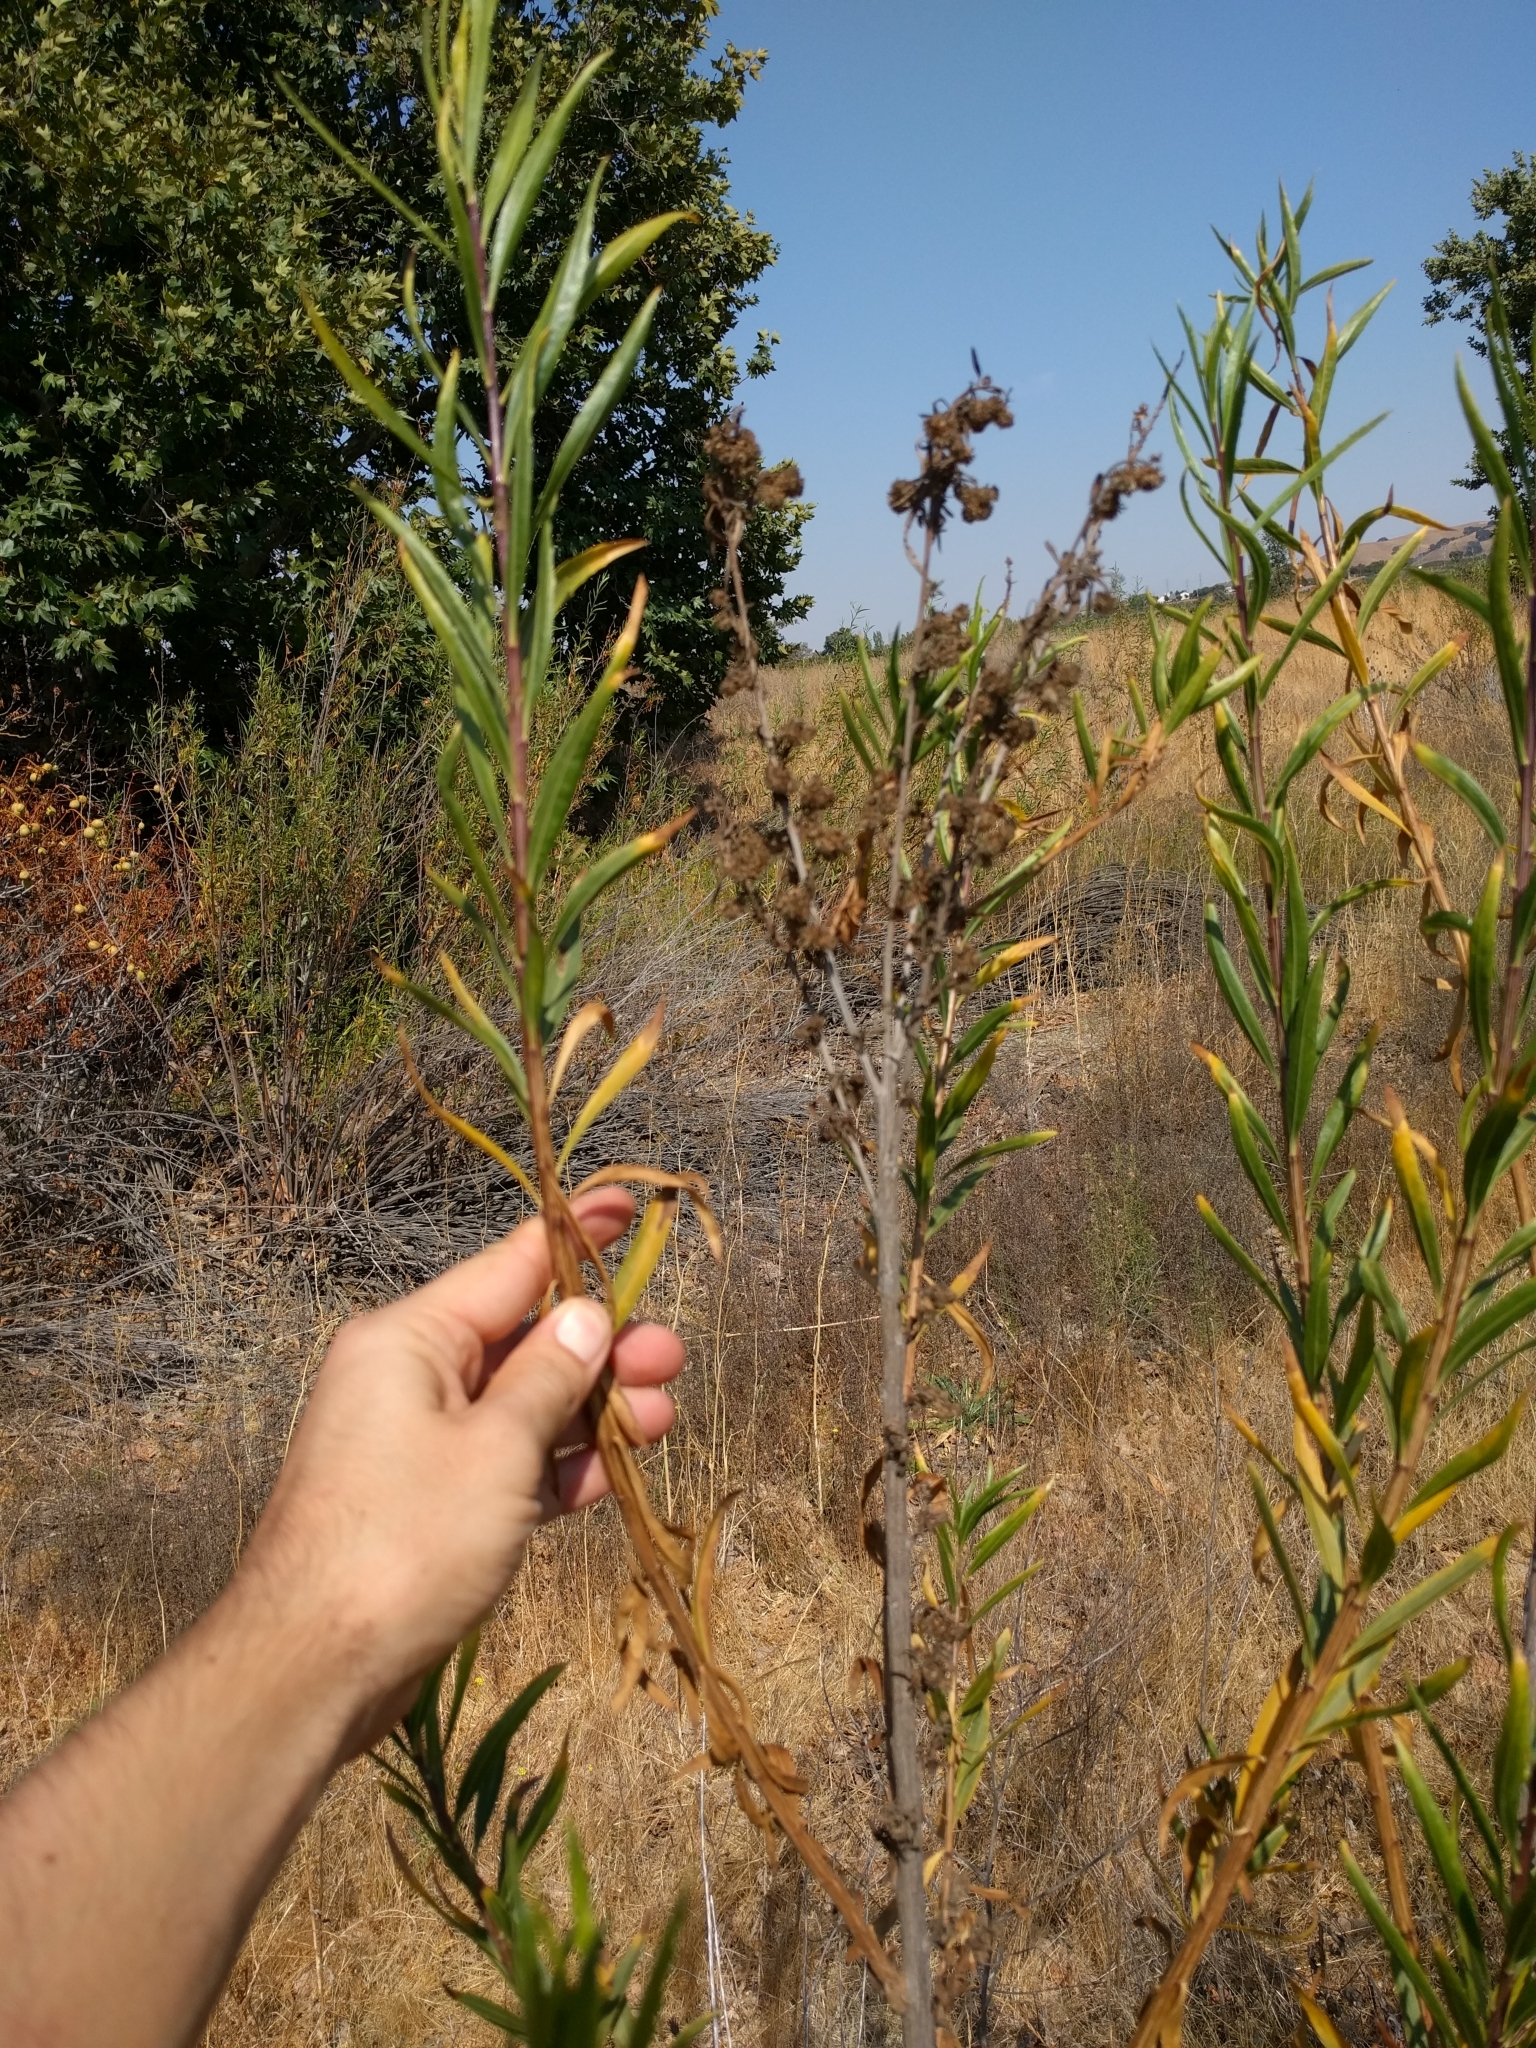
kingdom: Plantae
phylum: Tracheophyta
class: Magnoliopsida
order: Asterales
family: Asteraceae
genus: Baccharis
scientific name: Baccharis salicifolia
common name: Sticky baccharis
